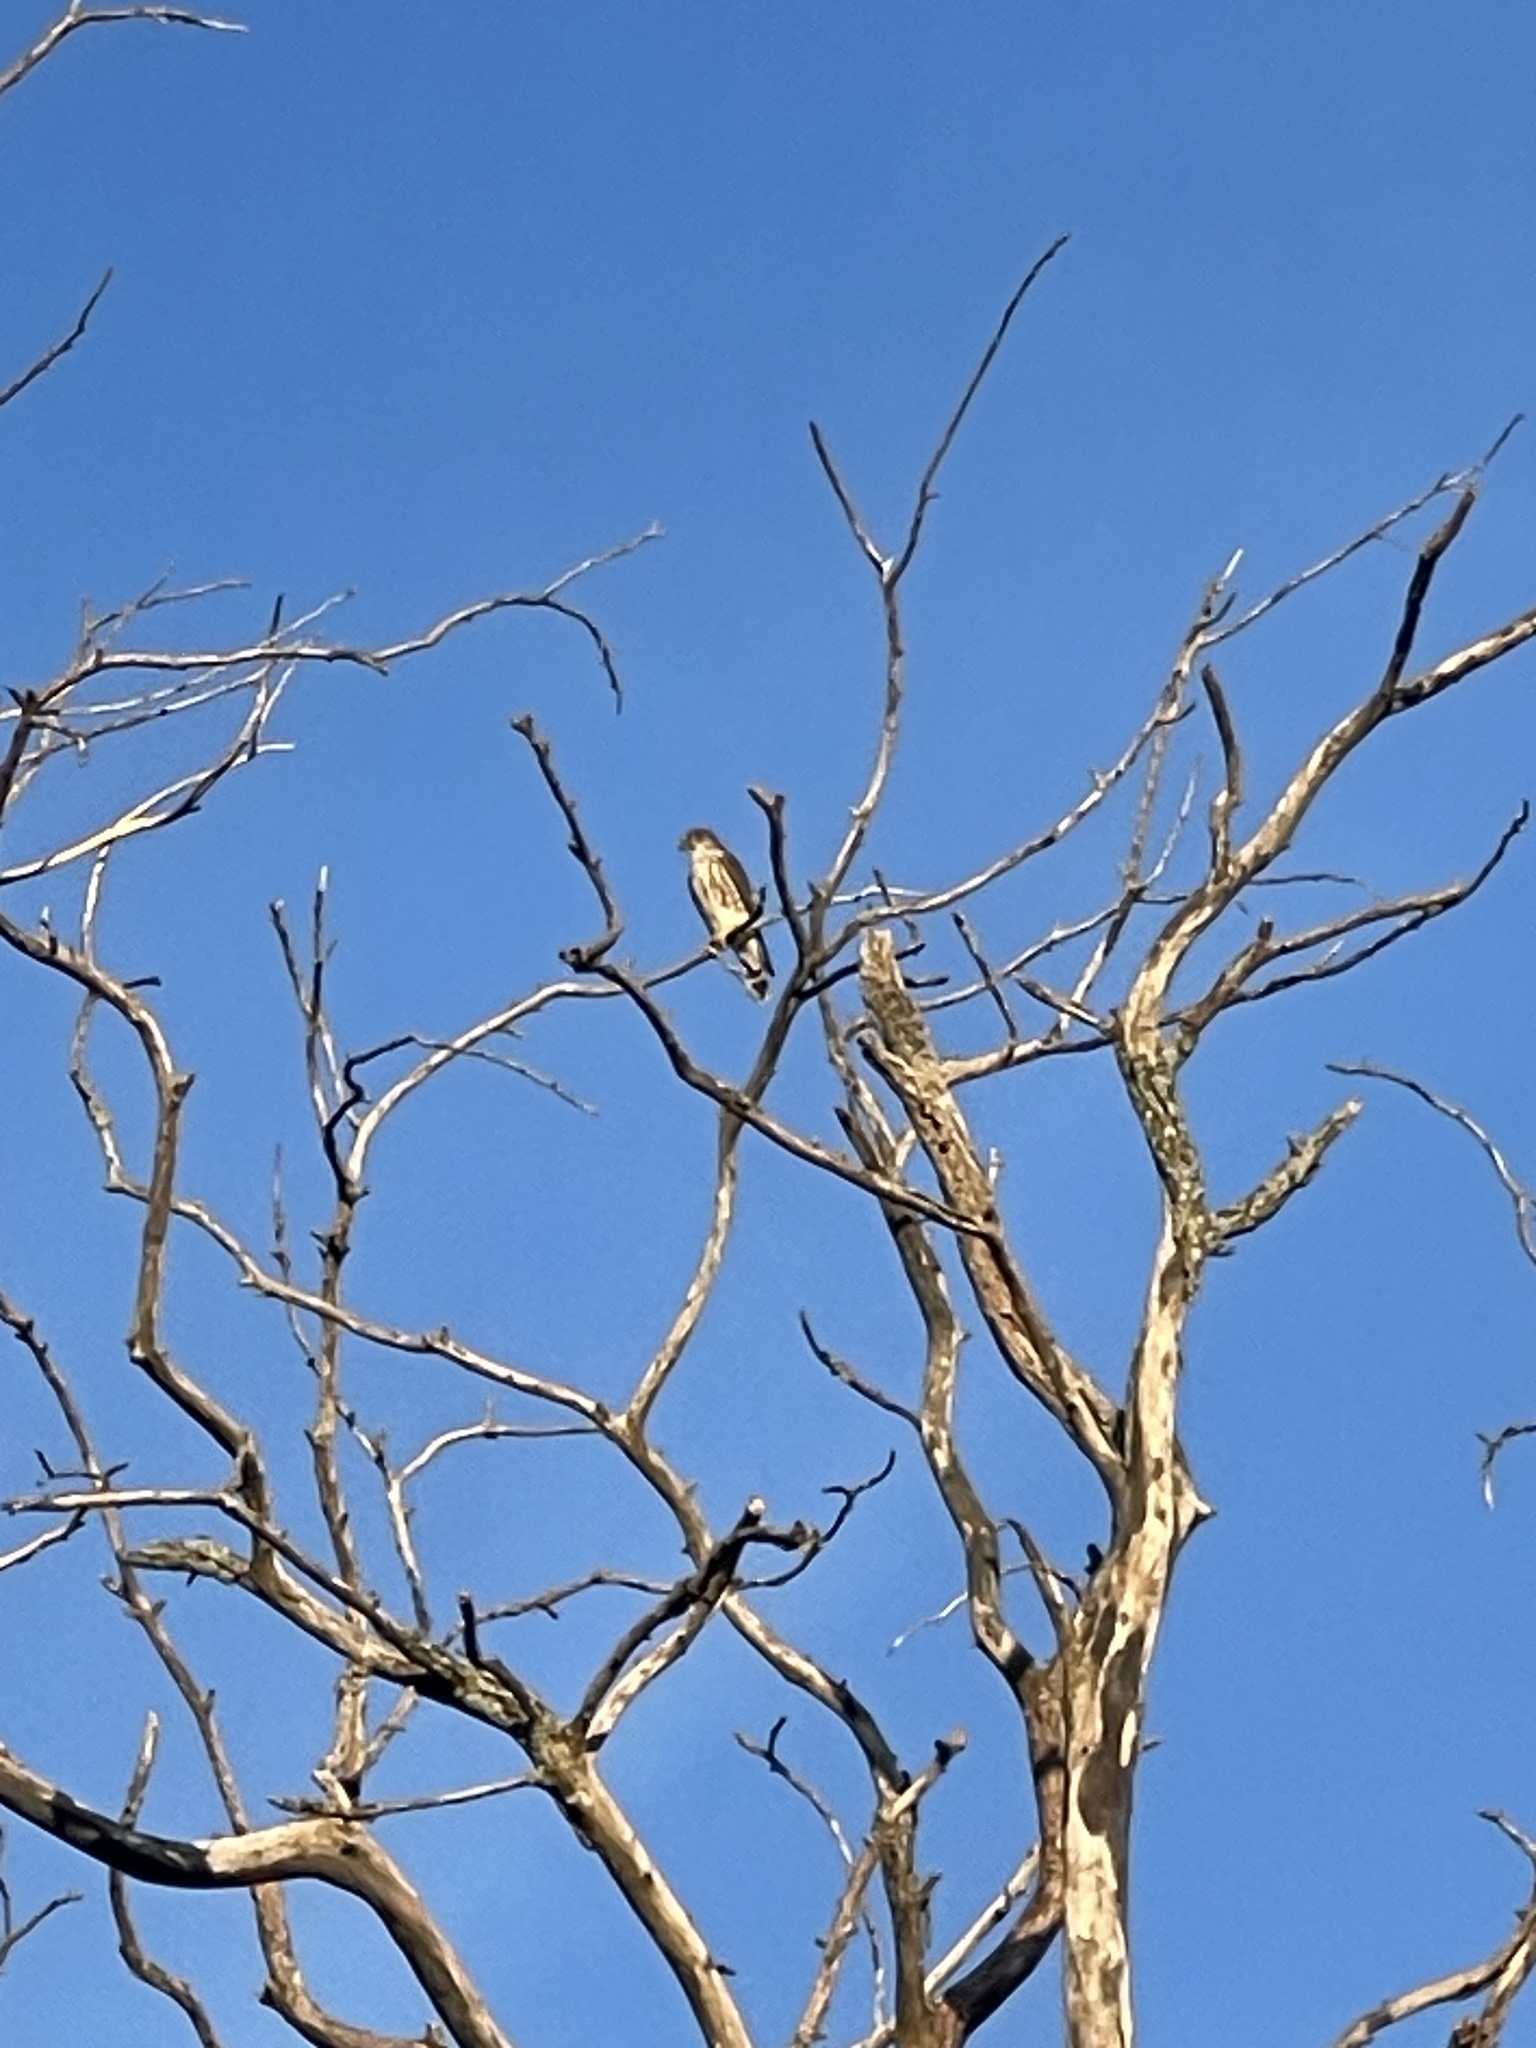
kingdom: Animalia
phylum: Chordata
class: Aves
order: Falconiformes
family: Falconidae
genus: Falco
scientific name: Falco columbarius
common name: Merlin
